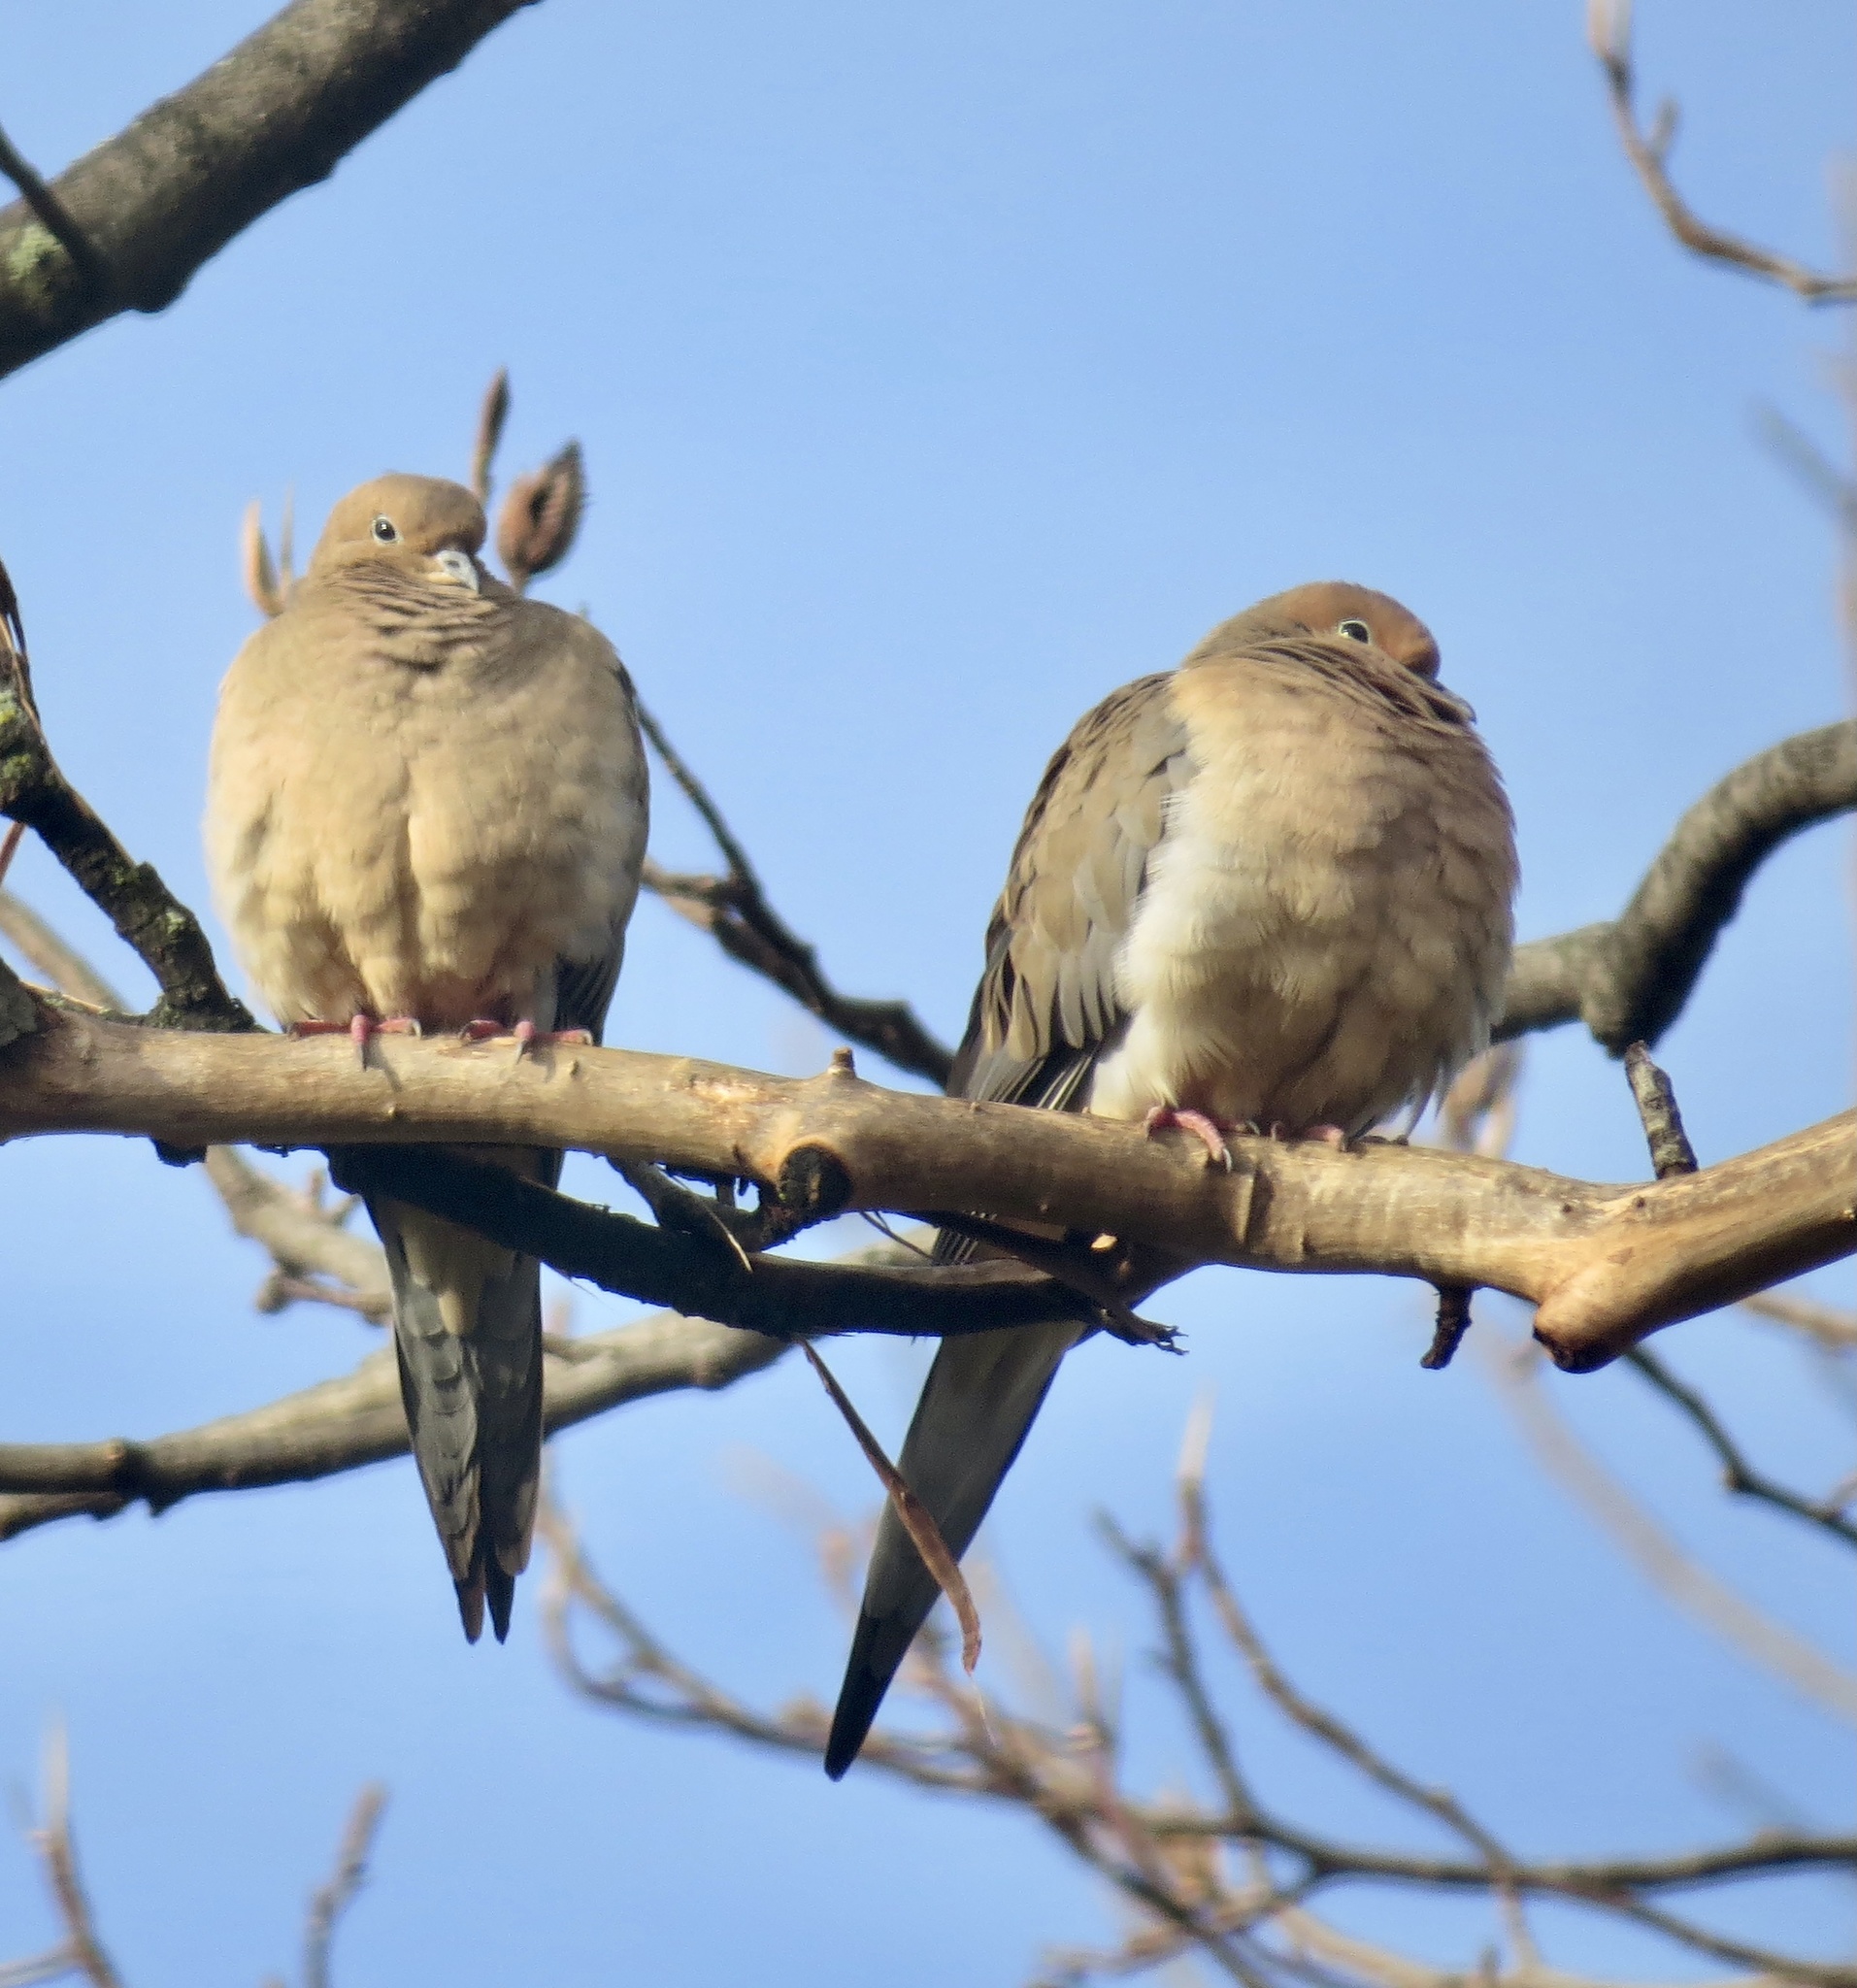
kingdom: Animalia
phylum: Chordata
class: Aves
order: Columbiformes
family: Columbidae
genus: Zenaida
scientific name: Zenaida macroura
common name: Mourning dove
